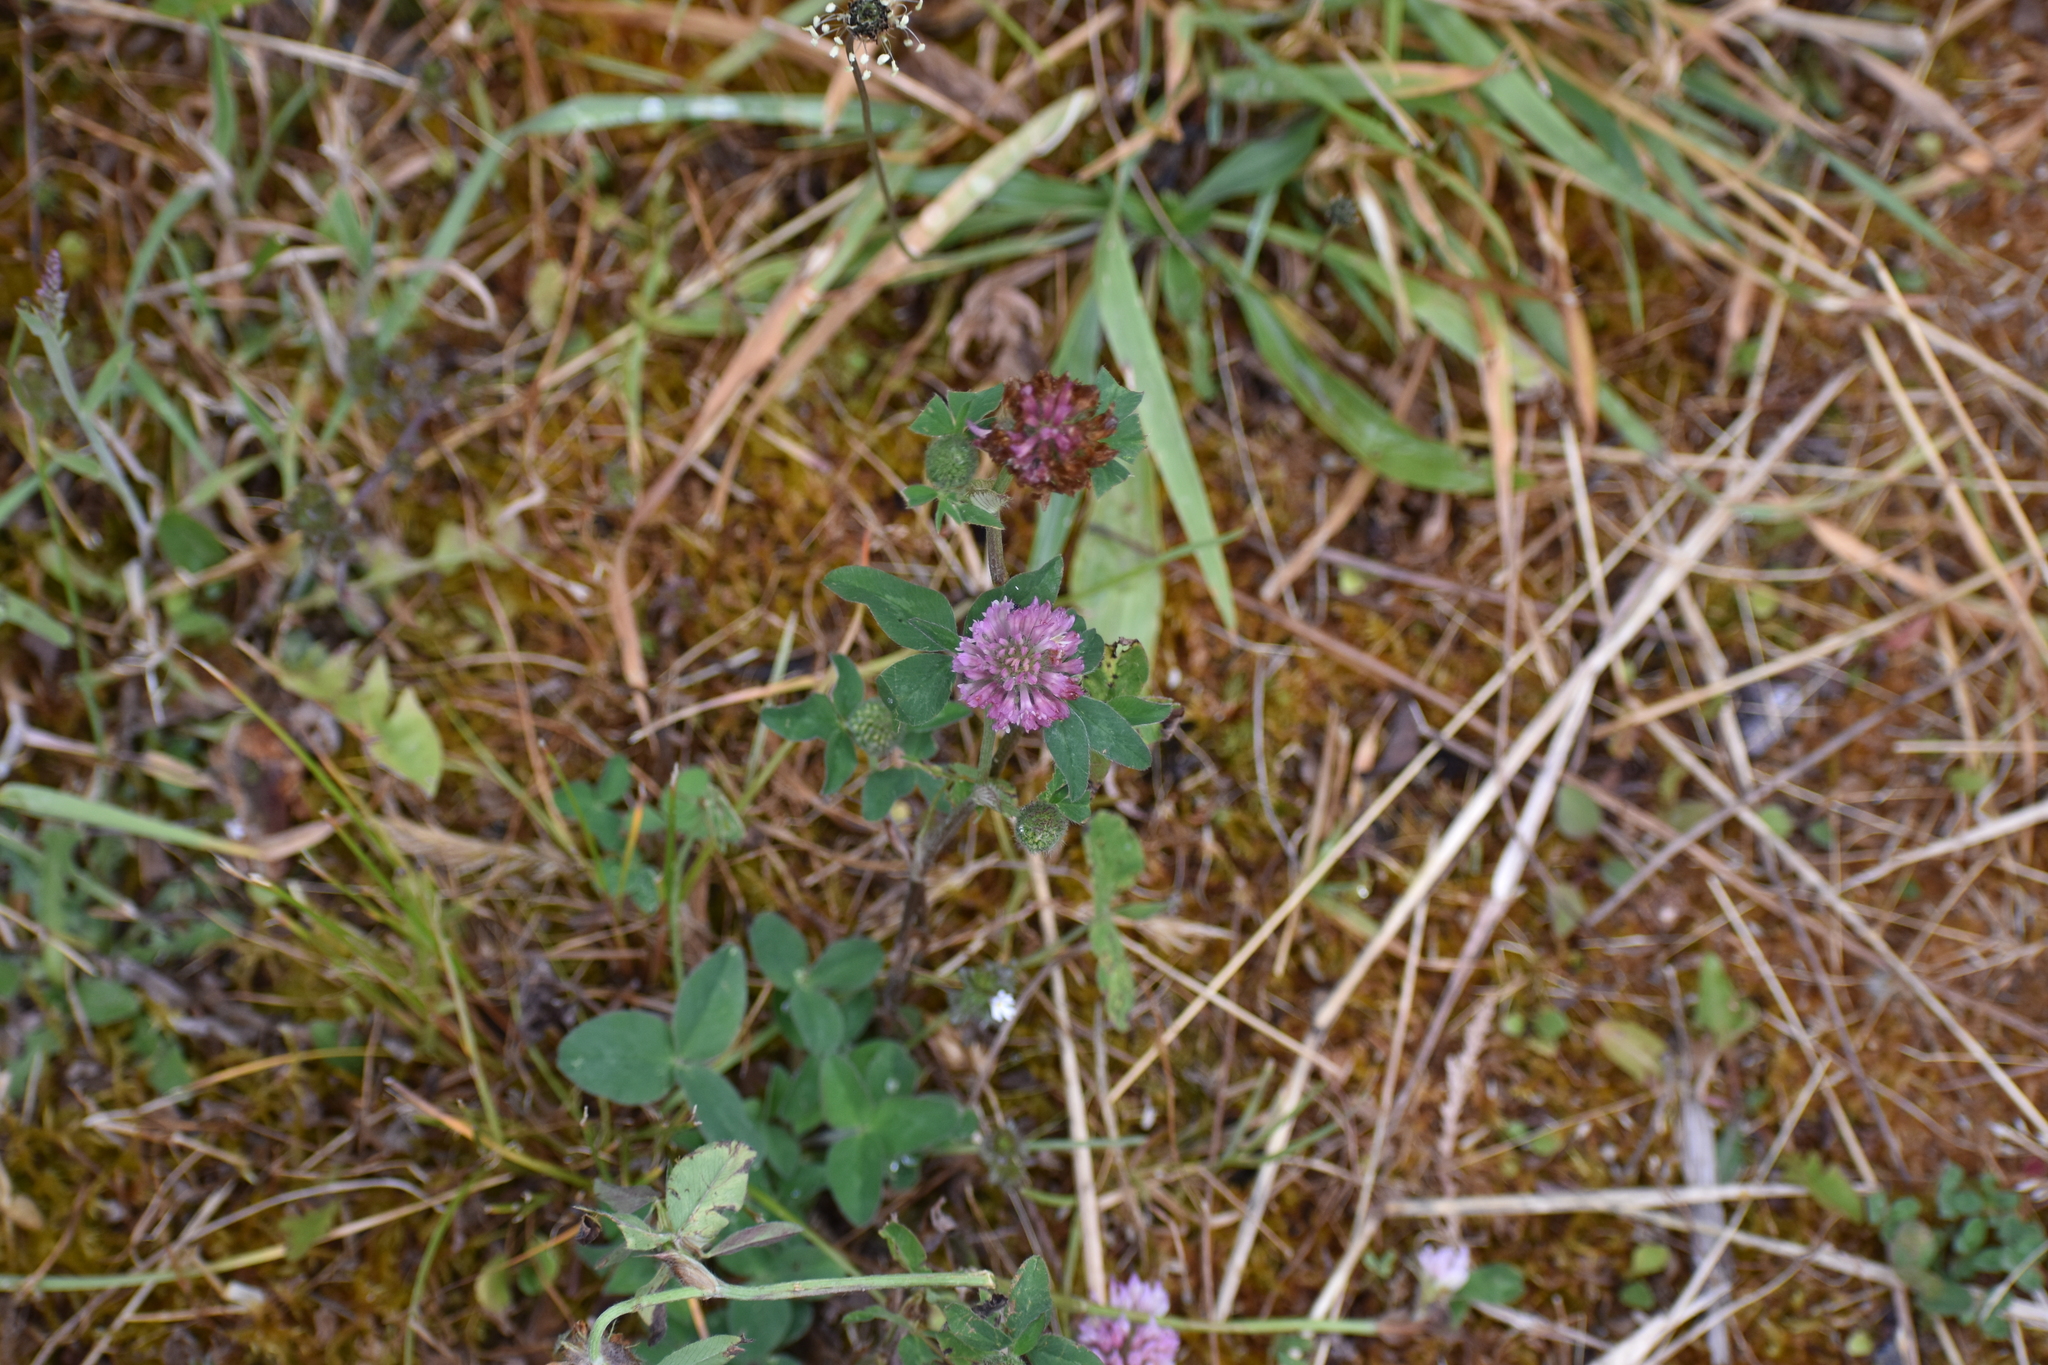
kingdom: Plantae
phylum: Tracheophyta
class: Magnoliopsida
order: Fabales
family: Fabaceae
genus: Trifolium
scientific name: Trifolium pratense
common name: Red clover
